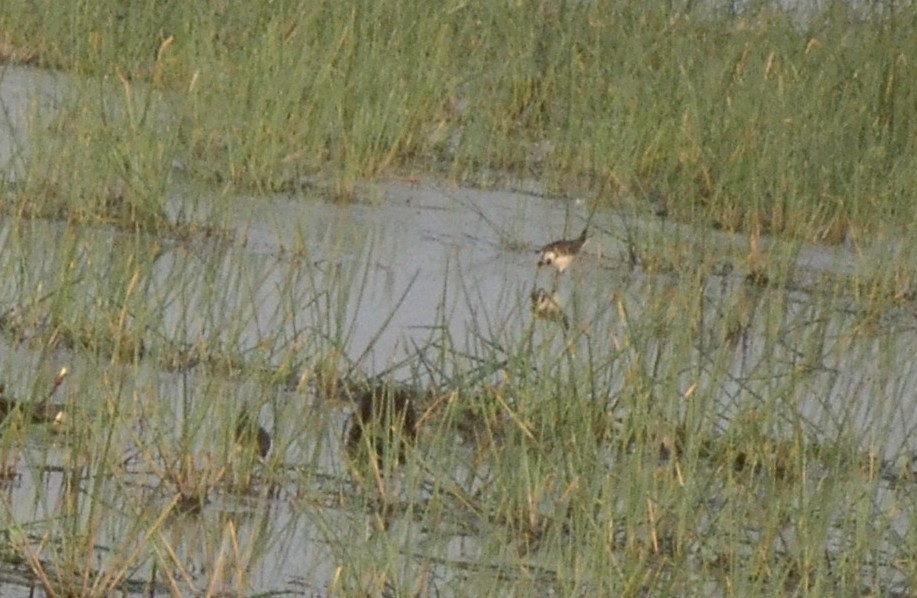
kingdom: Animalia
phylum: Chordata
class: Aves
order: Charadriiformes
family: Jacanidae
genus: Hydrophasianus
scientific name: Hydrophasianus chirurgus
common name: Pheasant-tailed jacana
